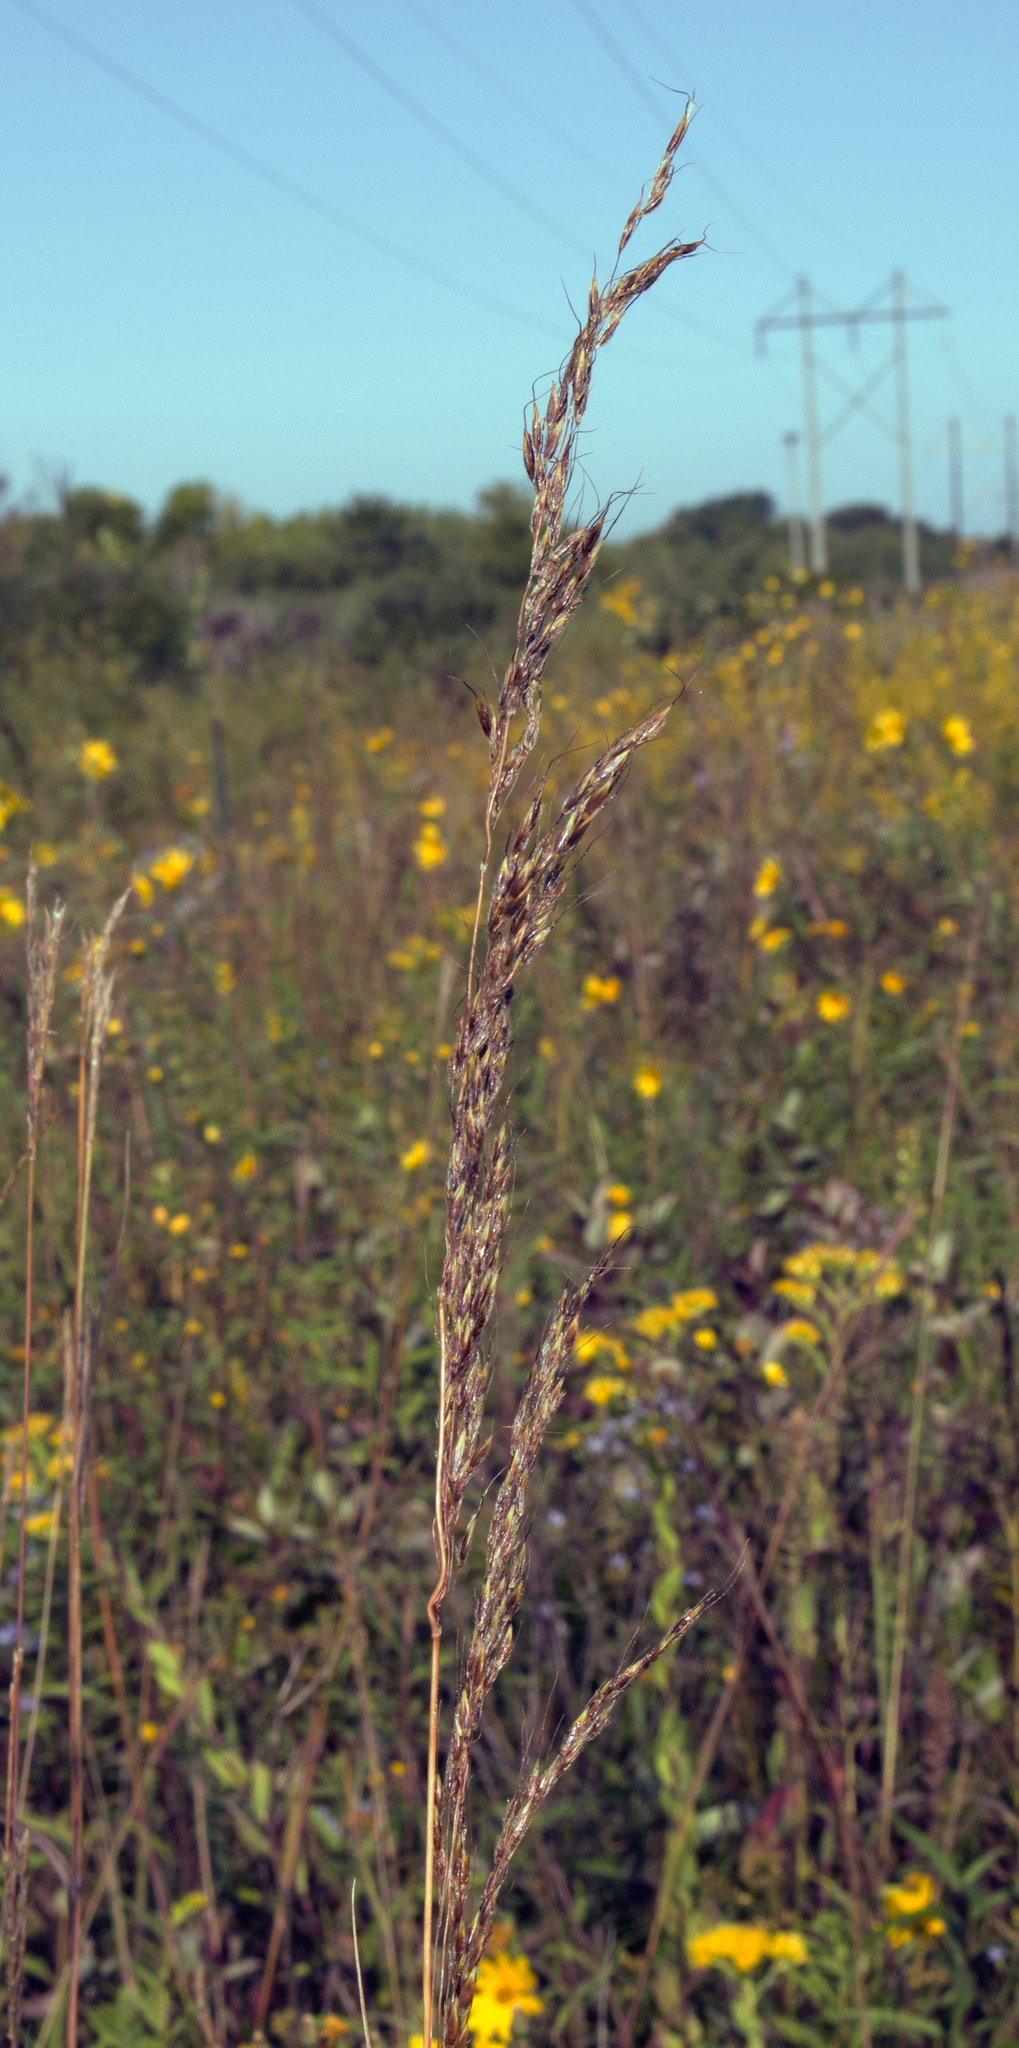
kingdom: Plantae
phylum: Tracheophyta
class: Liliopsida
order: Poales
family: Poaceae
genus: Sorghastrum
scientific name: Sorghastrum nutans
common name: Indian grass
